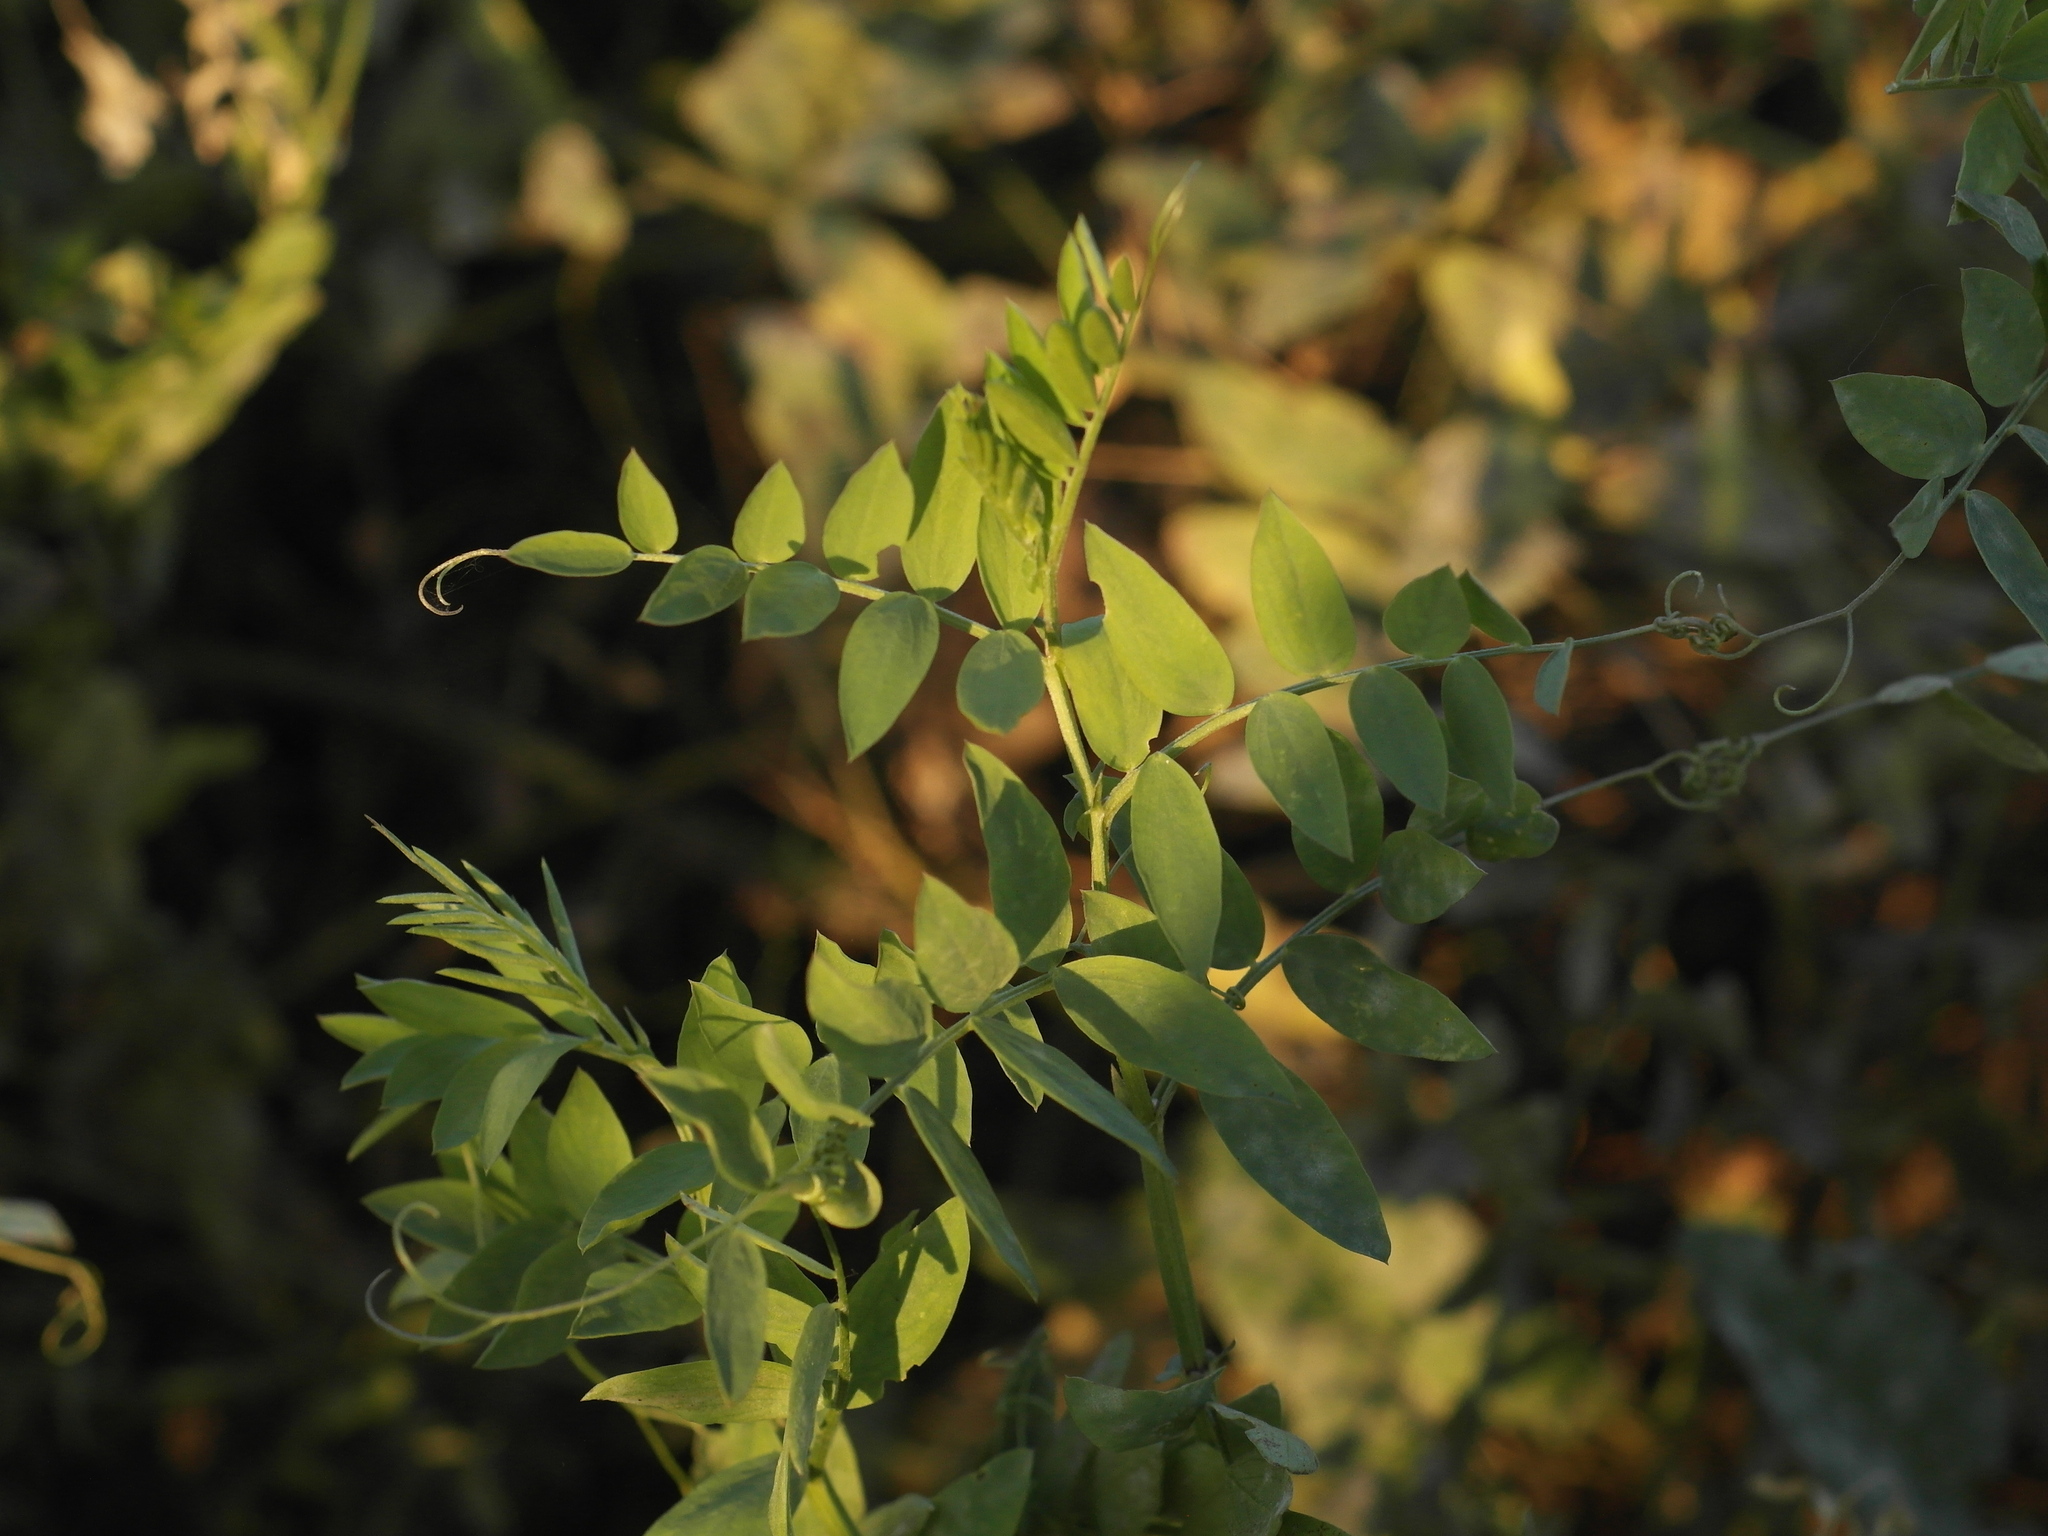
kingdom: Plantae
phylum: Tracheophyta
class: Magnoliopsida
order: Fabales
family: Fabaceae
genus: Vicia
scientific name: Vicia biennis
